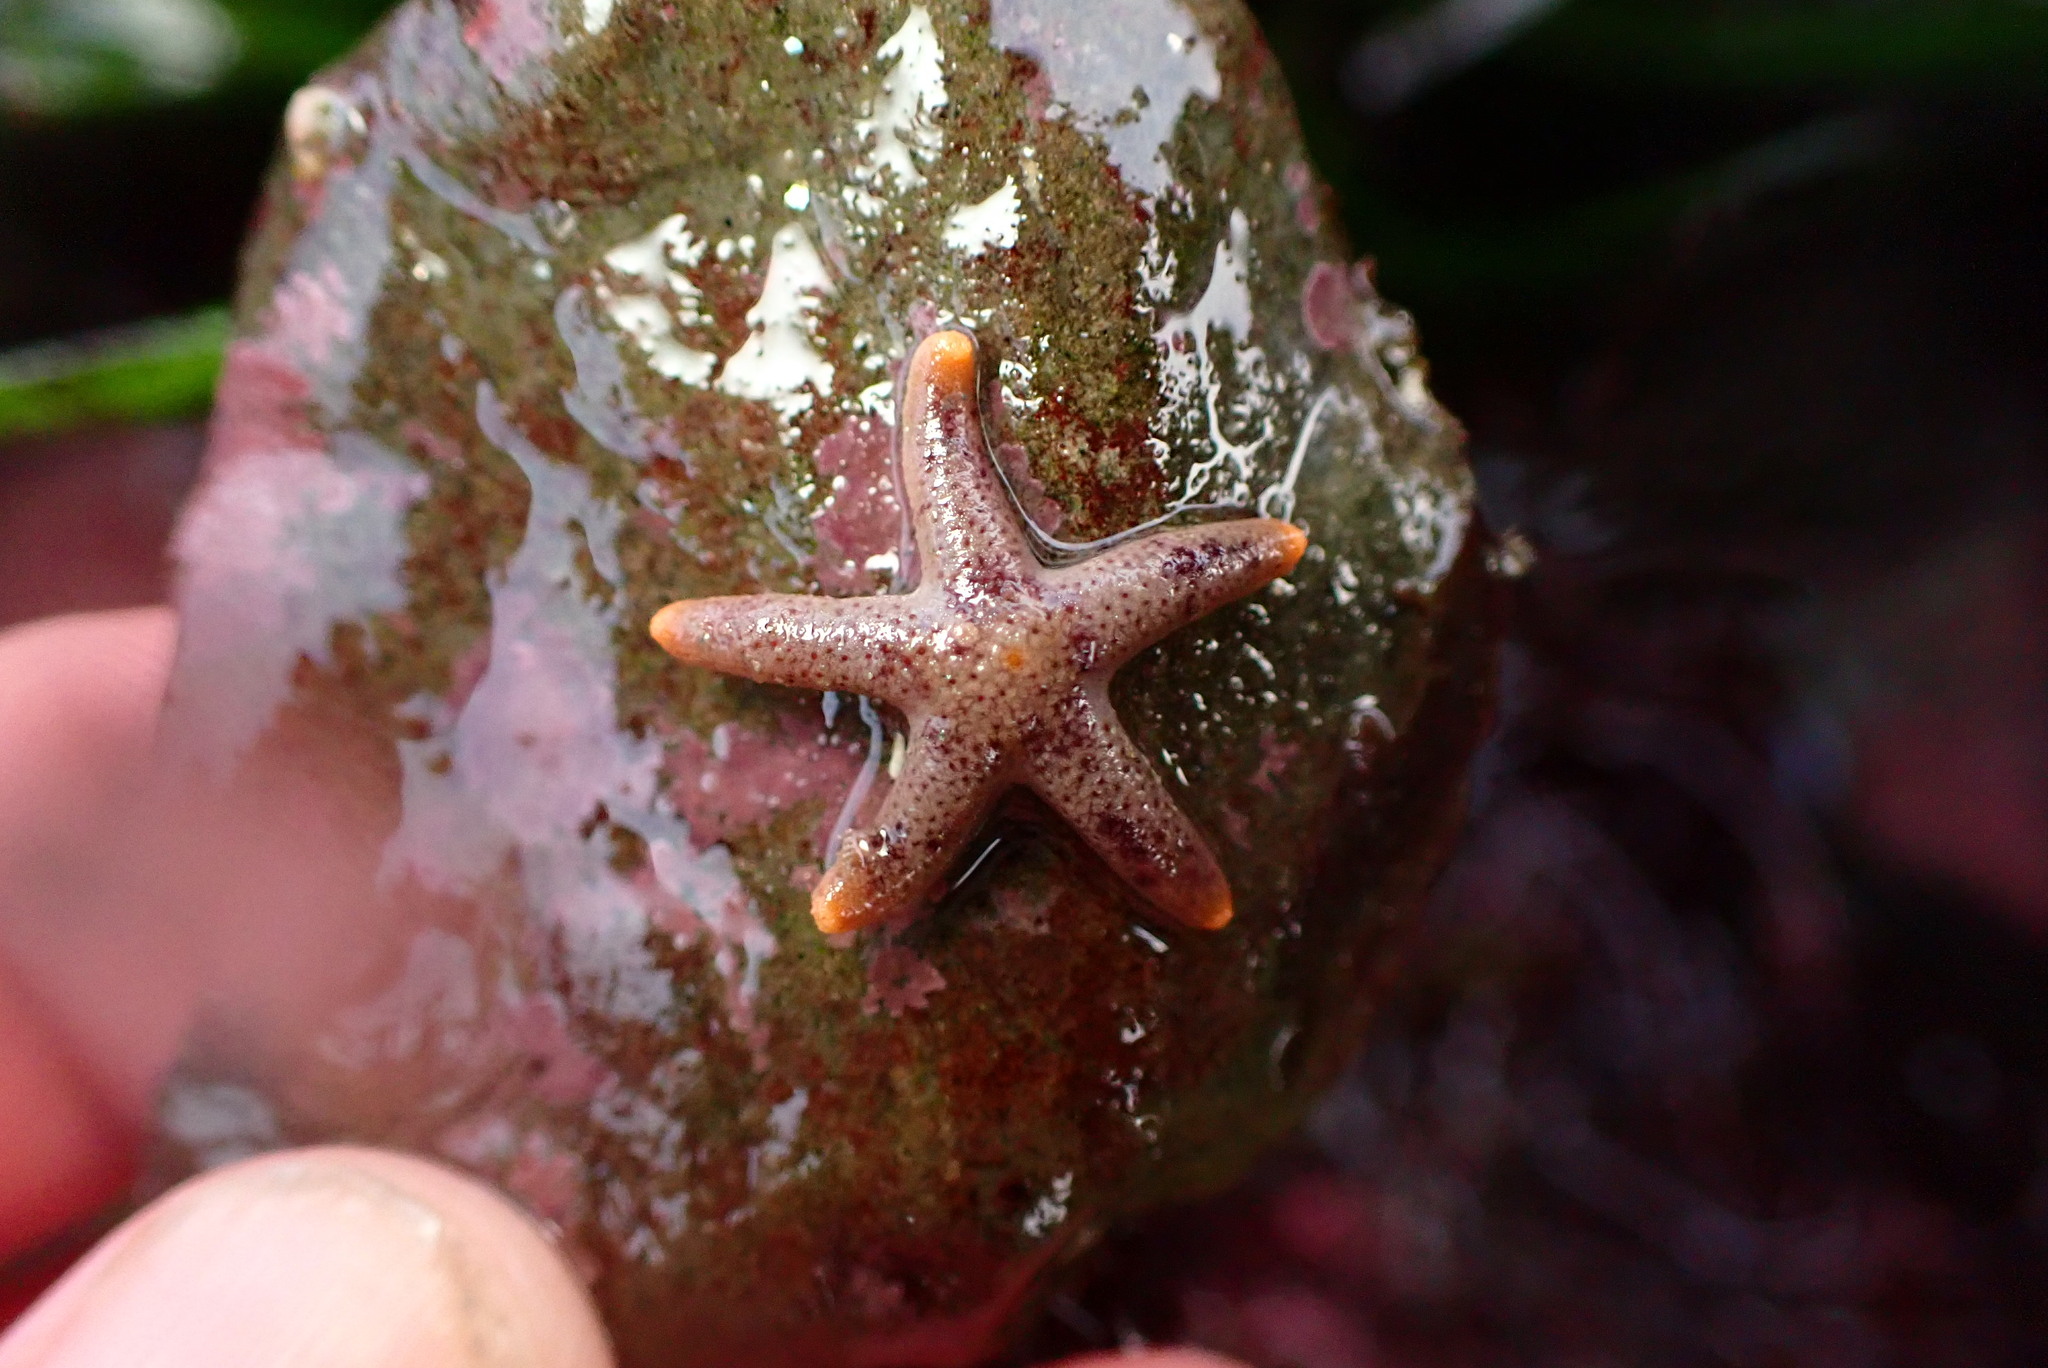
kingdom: Animalia
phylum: Echinodermata
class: Asteroidea
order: Spinulosida
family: Echinasteridae
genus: Henricia
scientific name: Henricia pumila
